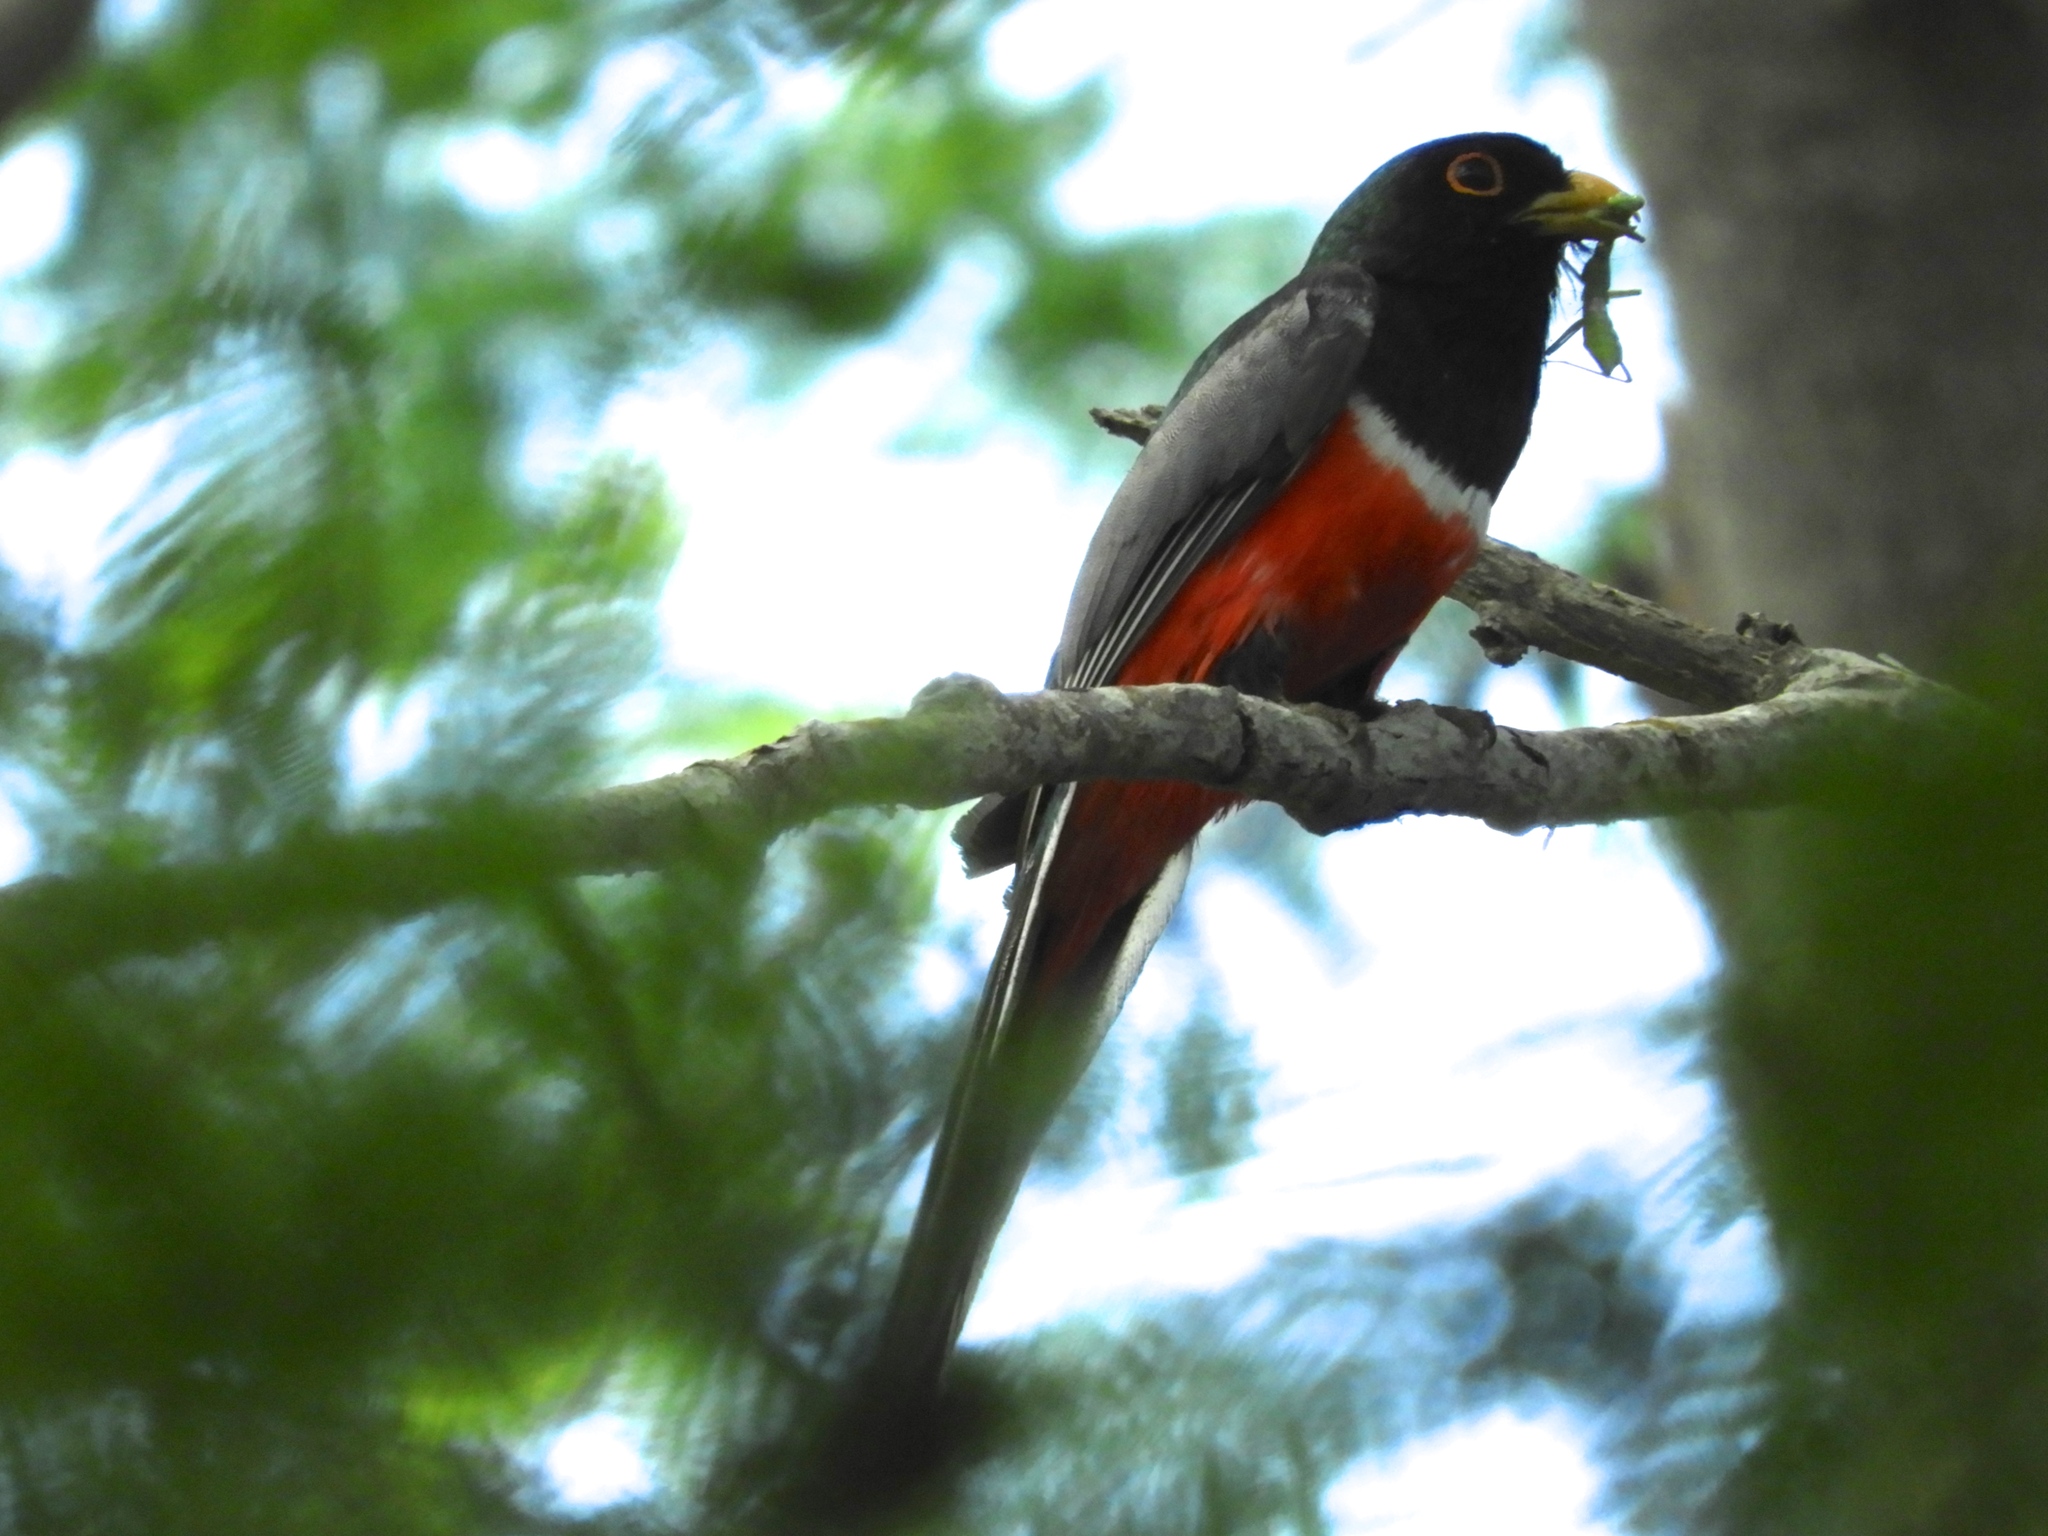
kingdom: Animalia
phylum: Chordata
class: Aves
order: Trogoniformes
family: Trogonidae
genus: Trogon
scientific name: Trogon elegans
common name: Elegant trogon
